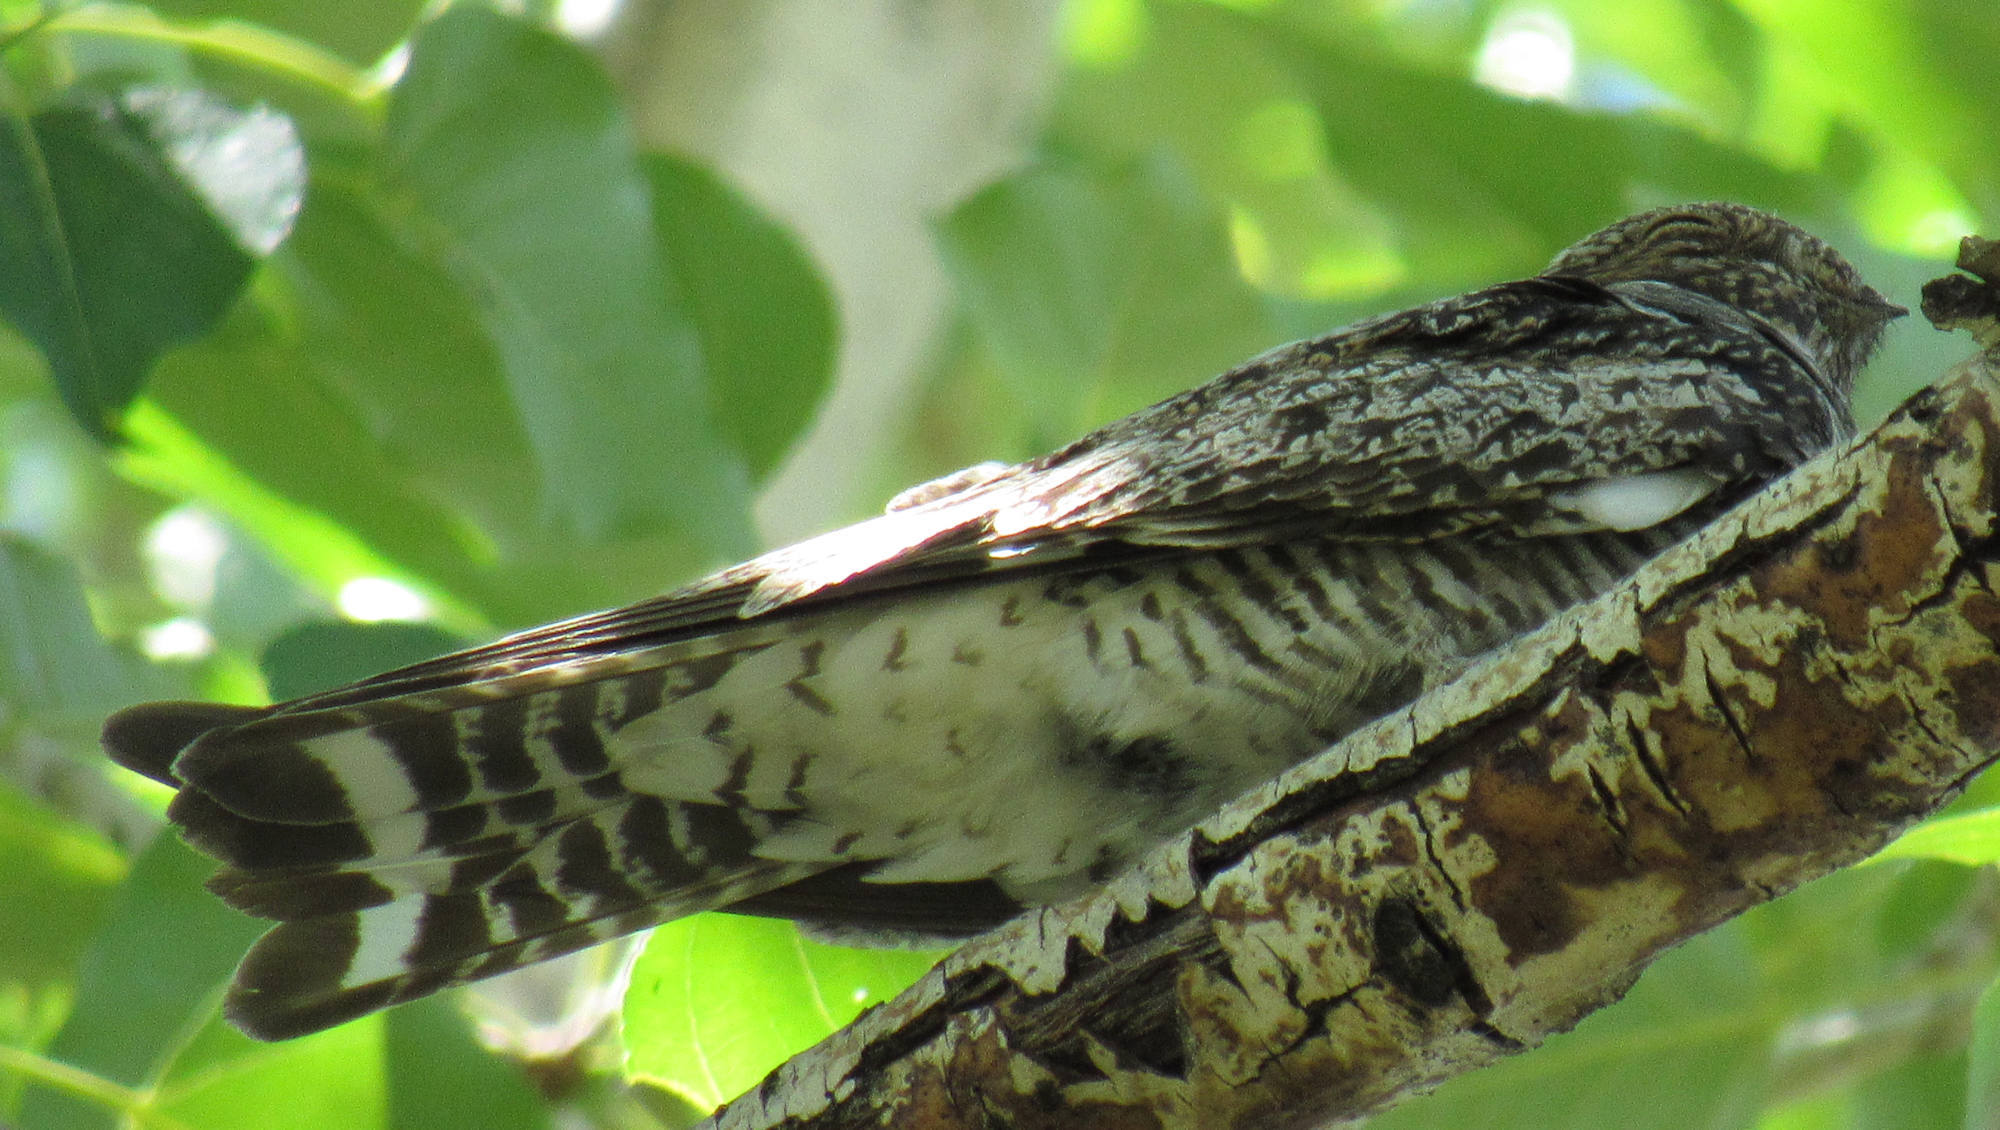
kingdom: Animalia
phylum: Chordata
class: Aves
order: Caprimulgiformes
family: Caprimulgidae
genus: Chordeiles
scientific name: Chordeiles minor
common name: Common nighthawk
